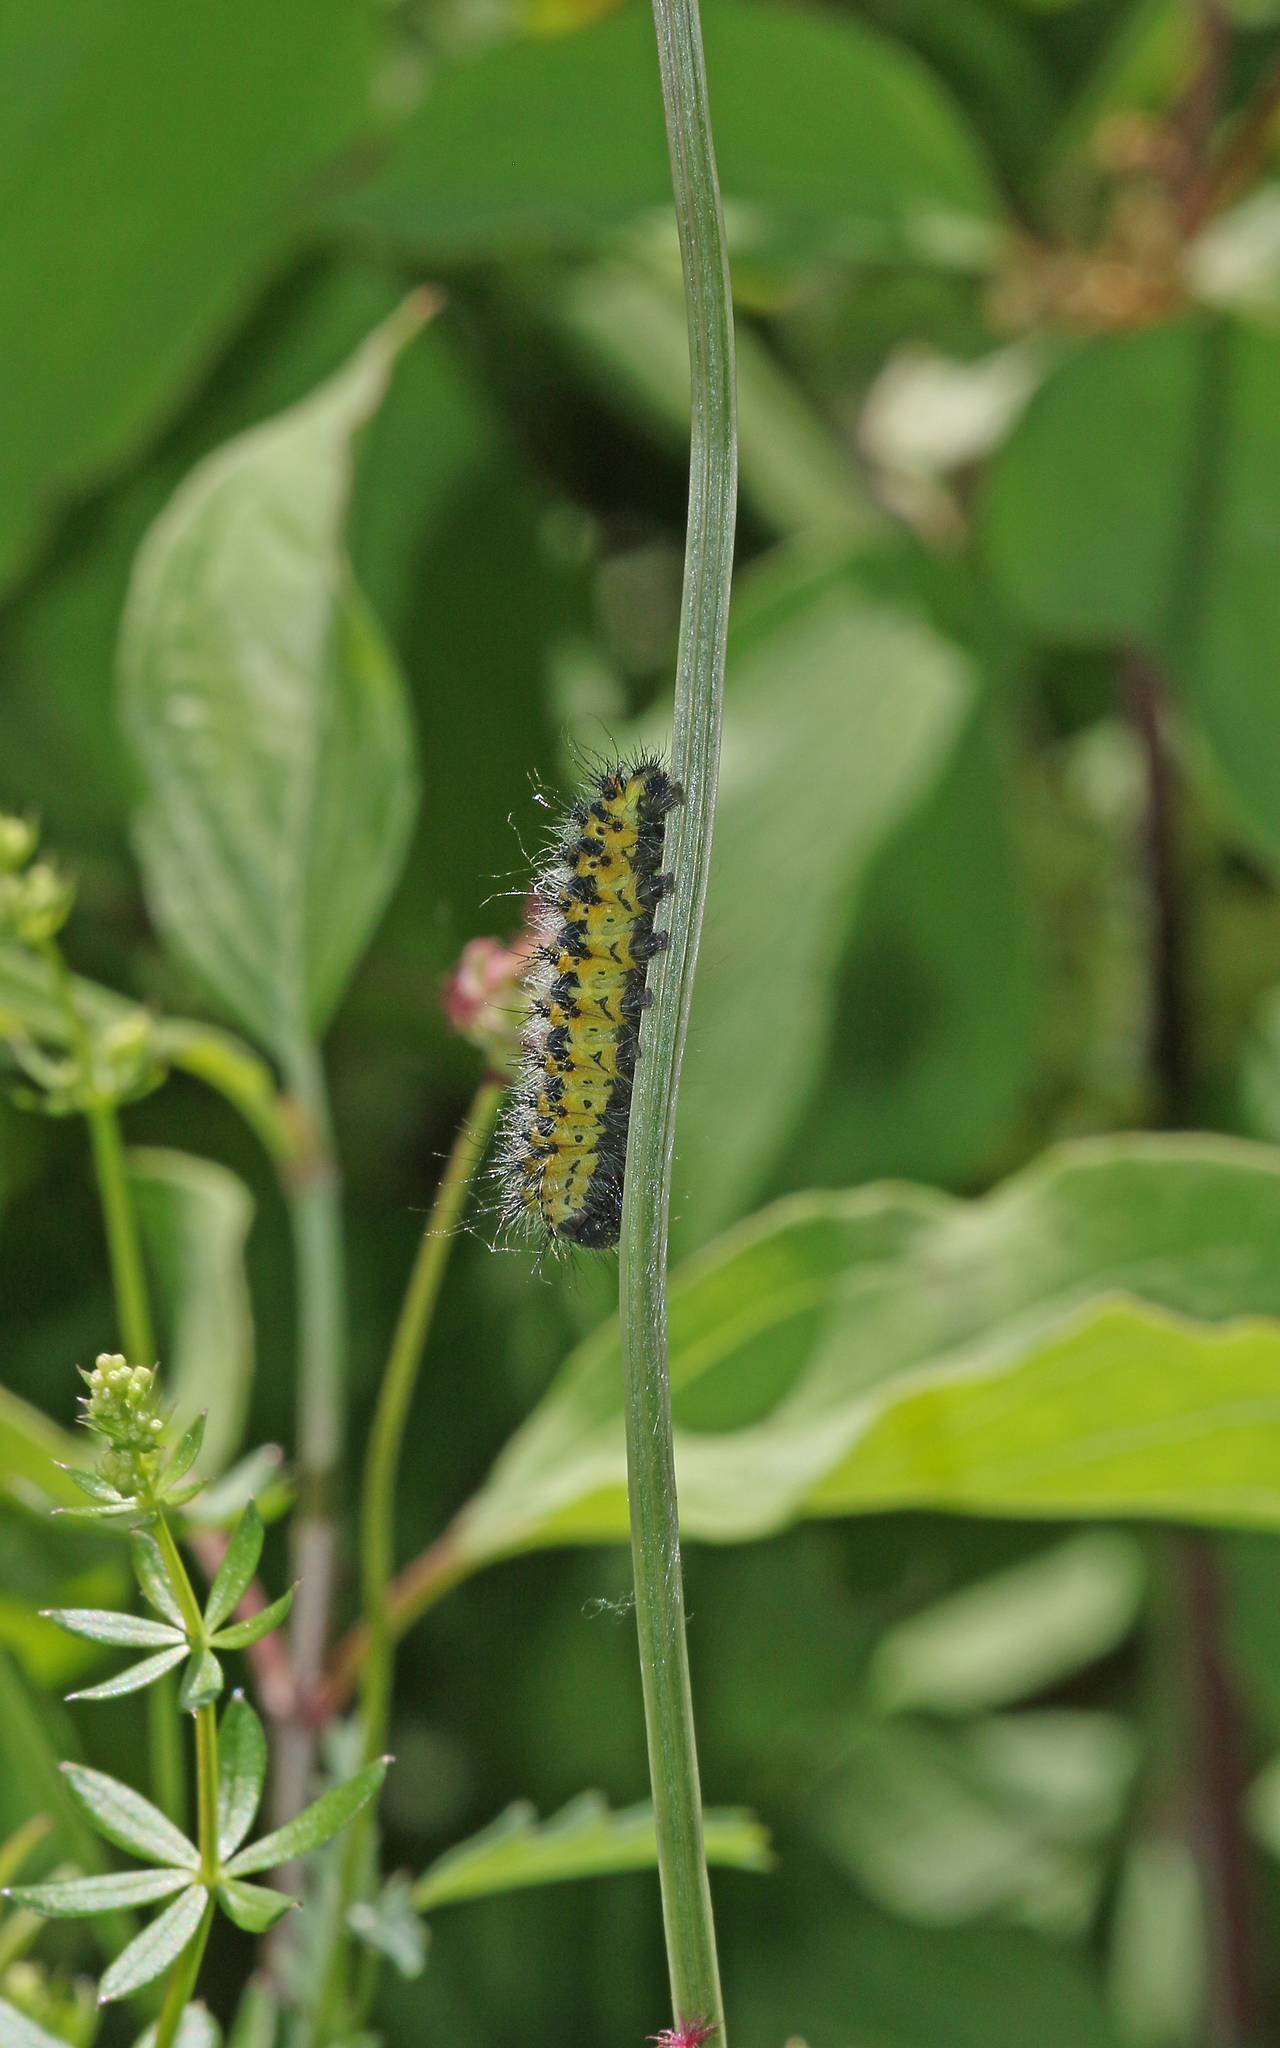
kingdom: Animalia
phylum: Arthropoda
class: Insecta
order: Lepidoptera
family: Saturniidae
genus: Saturnia
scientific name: Saturnia pavonia
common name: Emperor moth
